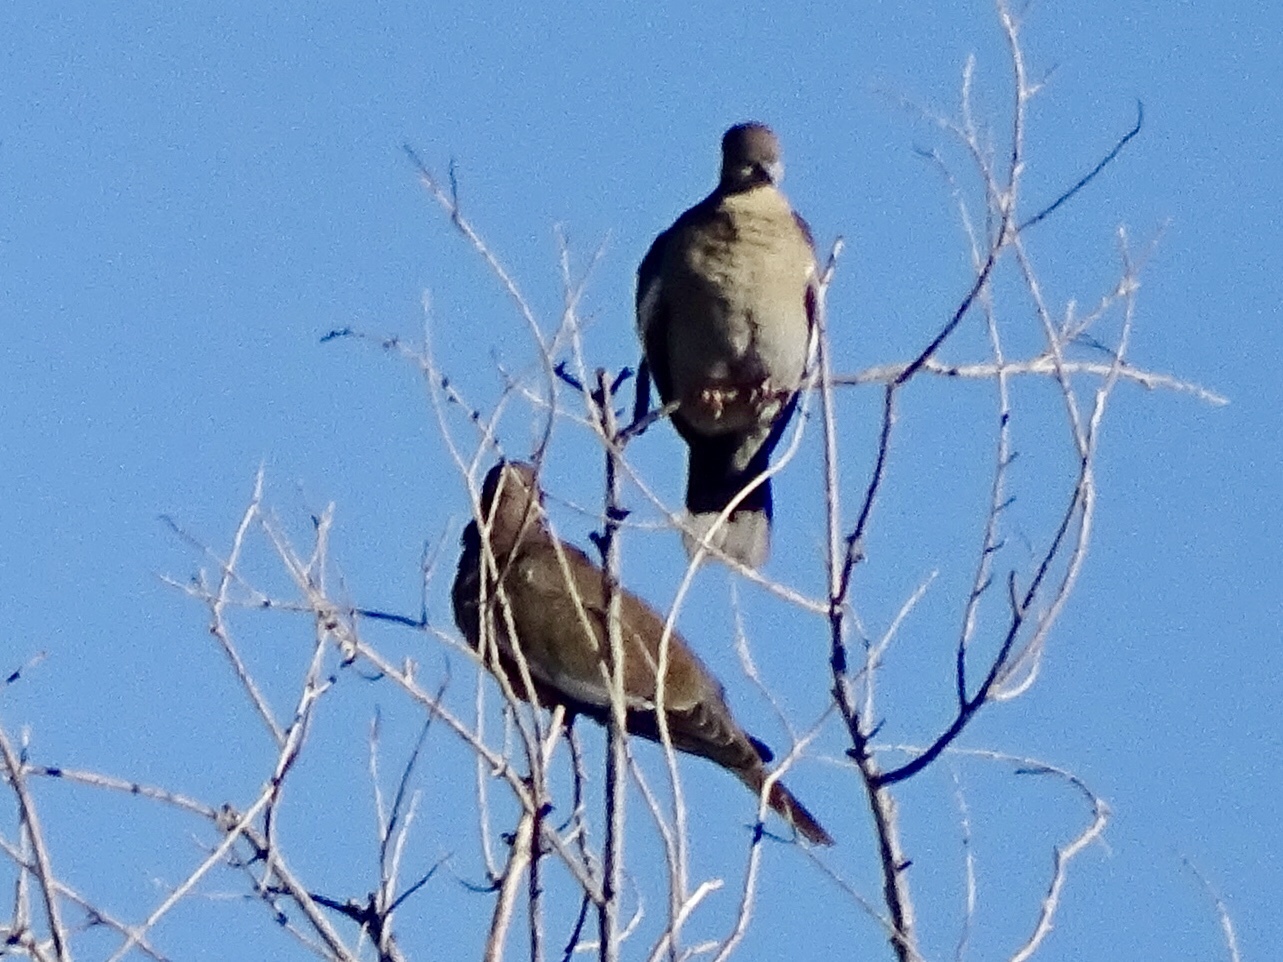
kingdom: Animalia
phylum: Chordata
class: Aves
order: Columbiformes
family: Columbidae
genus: Zenaida
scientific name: Zenaida asiatica
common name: White-winged dove
